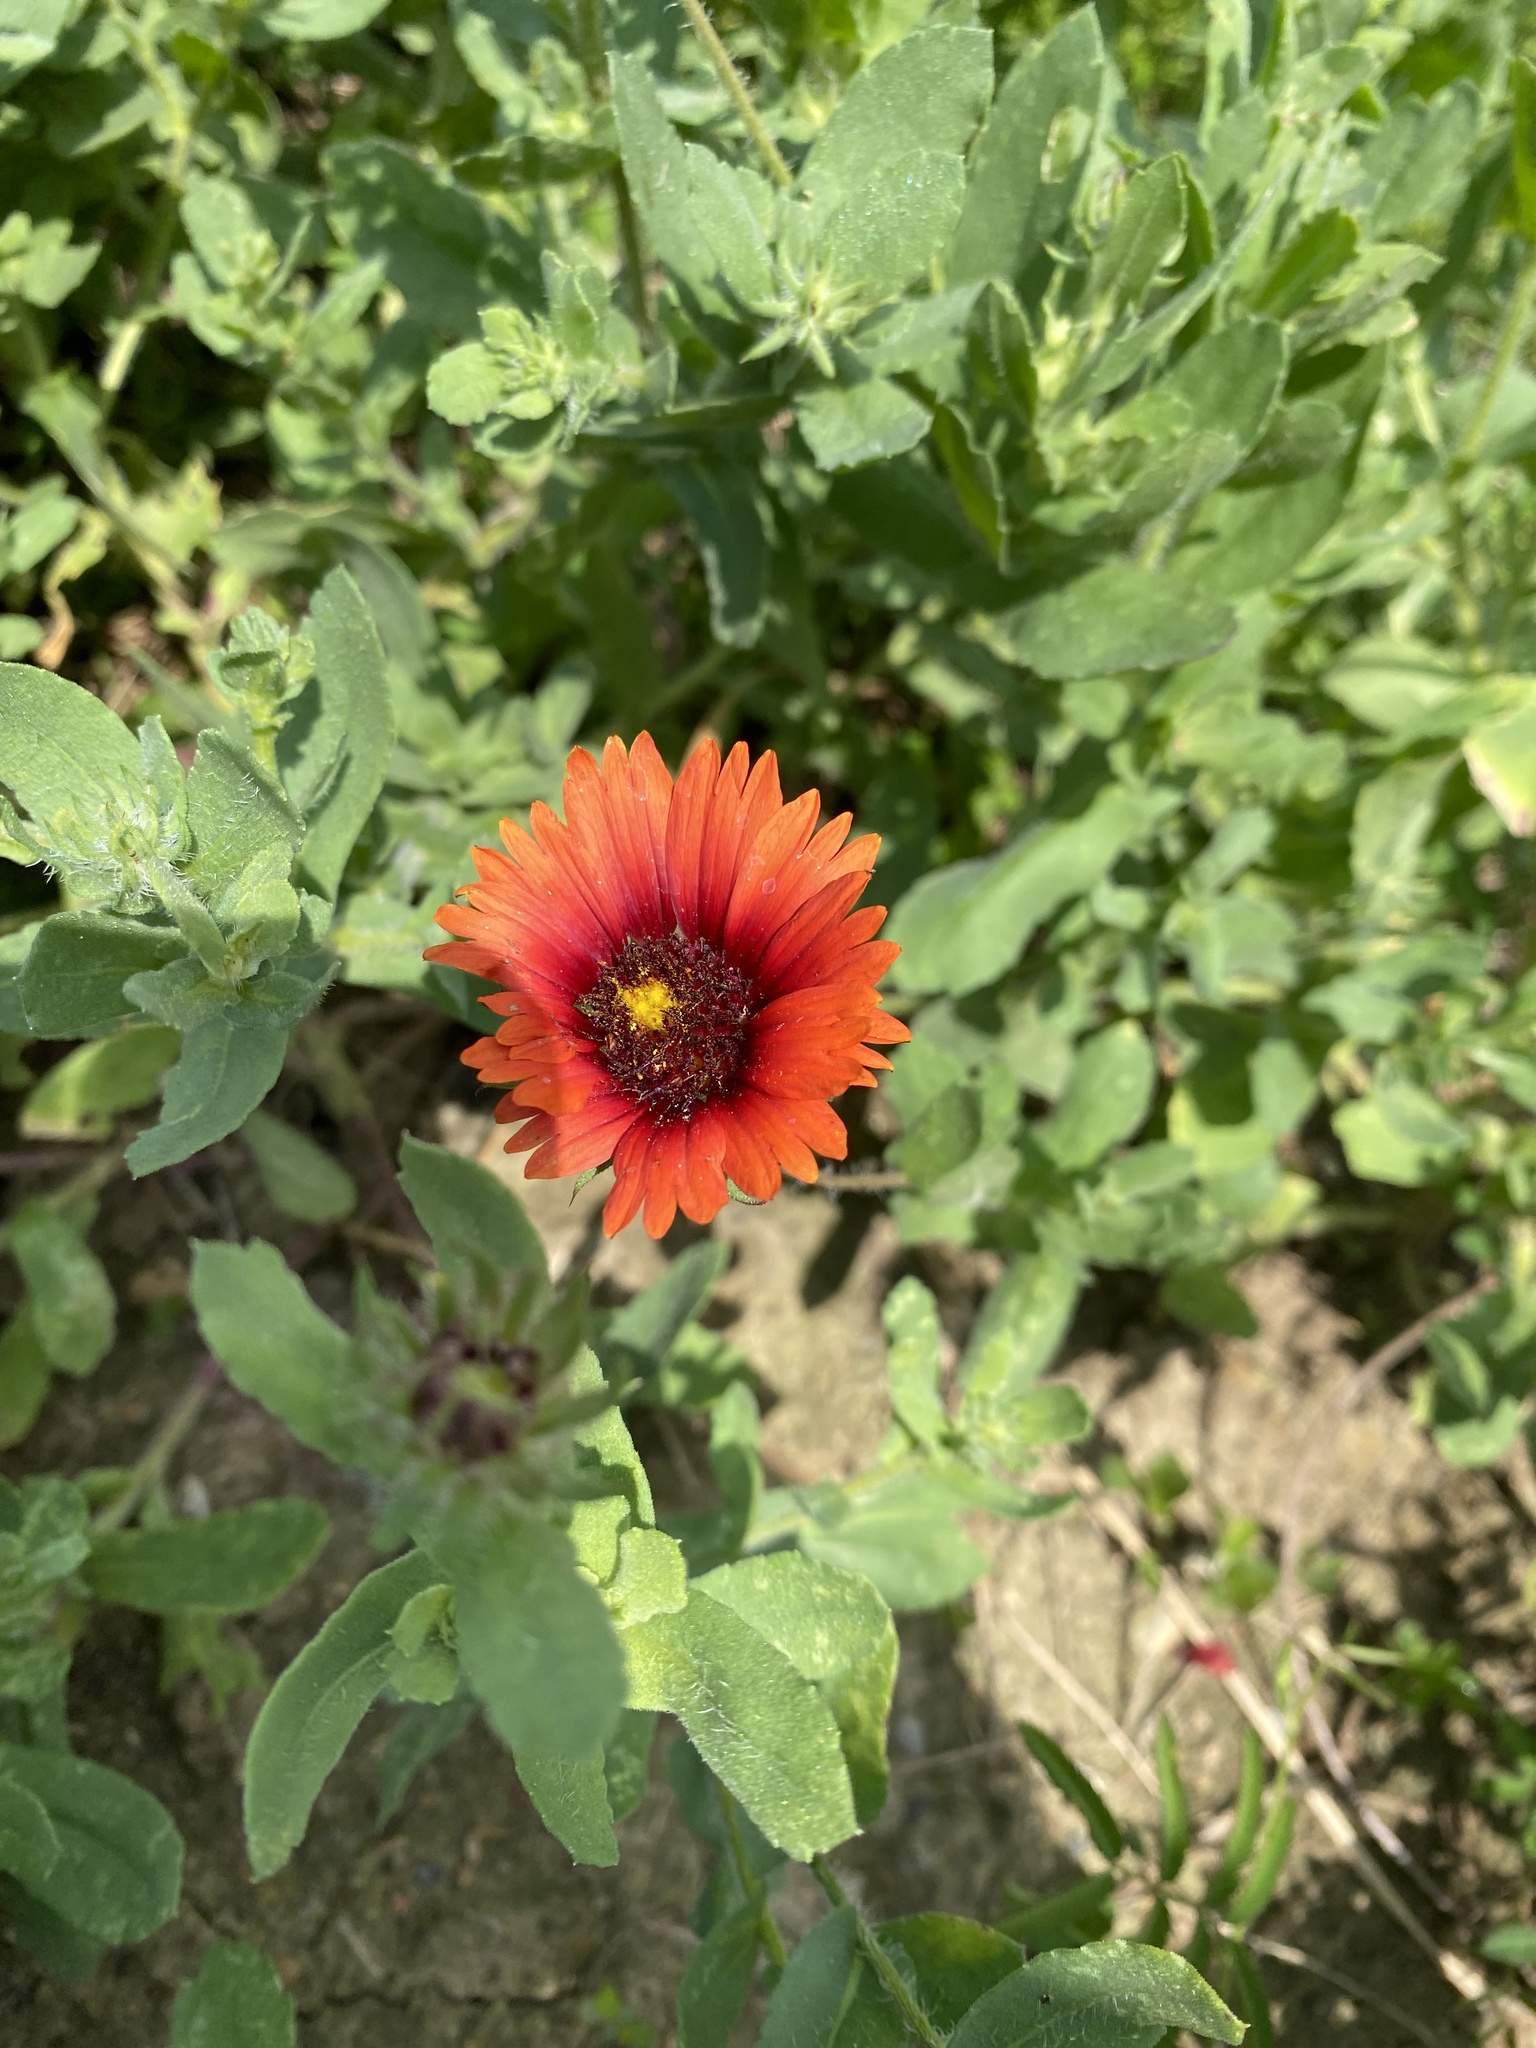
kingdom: Plantae
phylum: Tracheophyta
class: Magnoliopsida
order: Asterales
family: Asteraceae
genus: Gaillardia
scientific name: Gaillardia amblyodon
